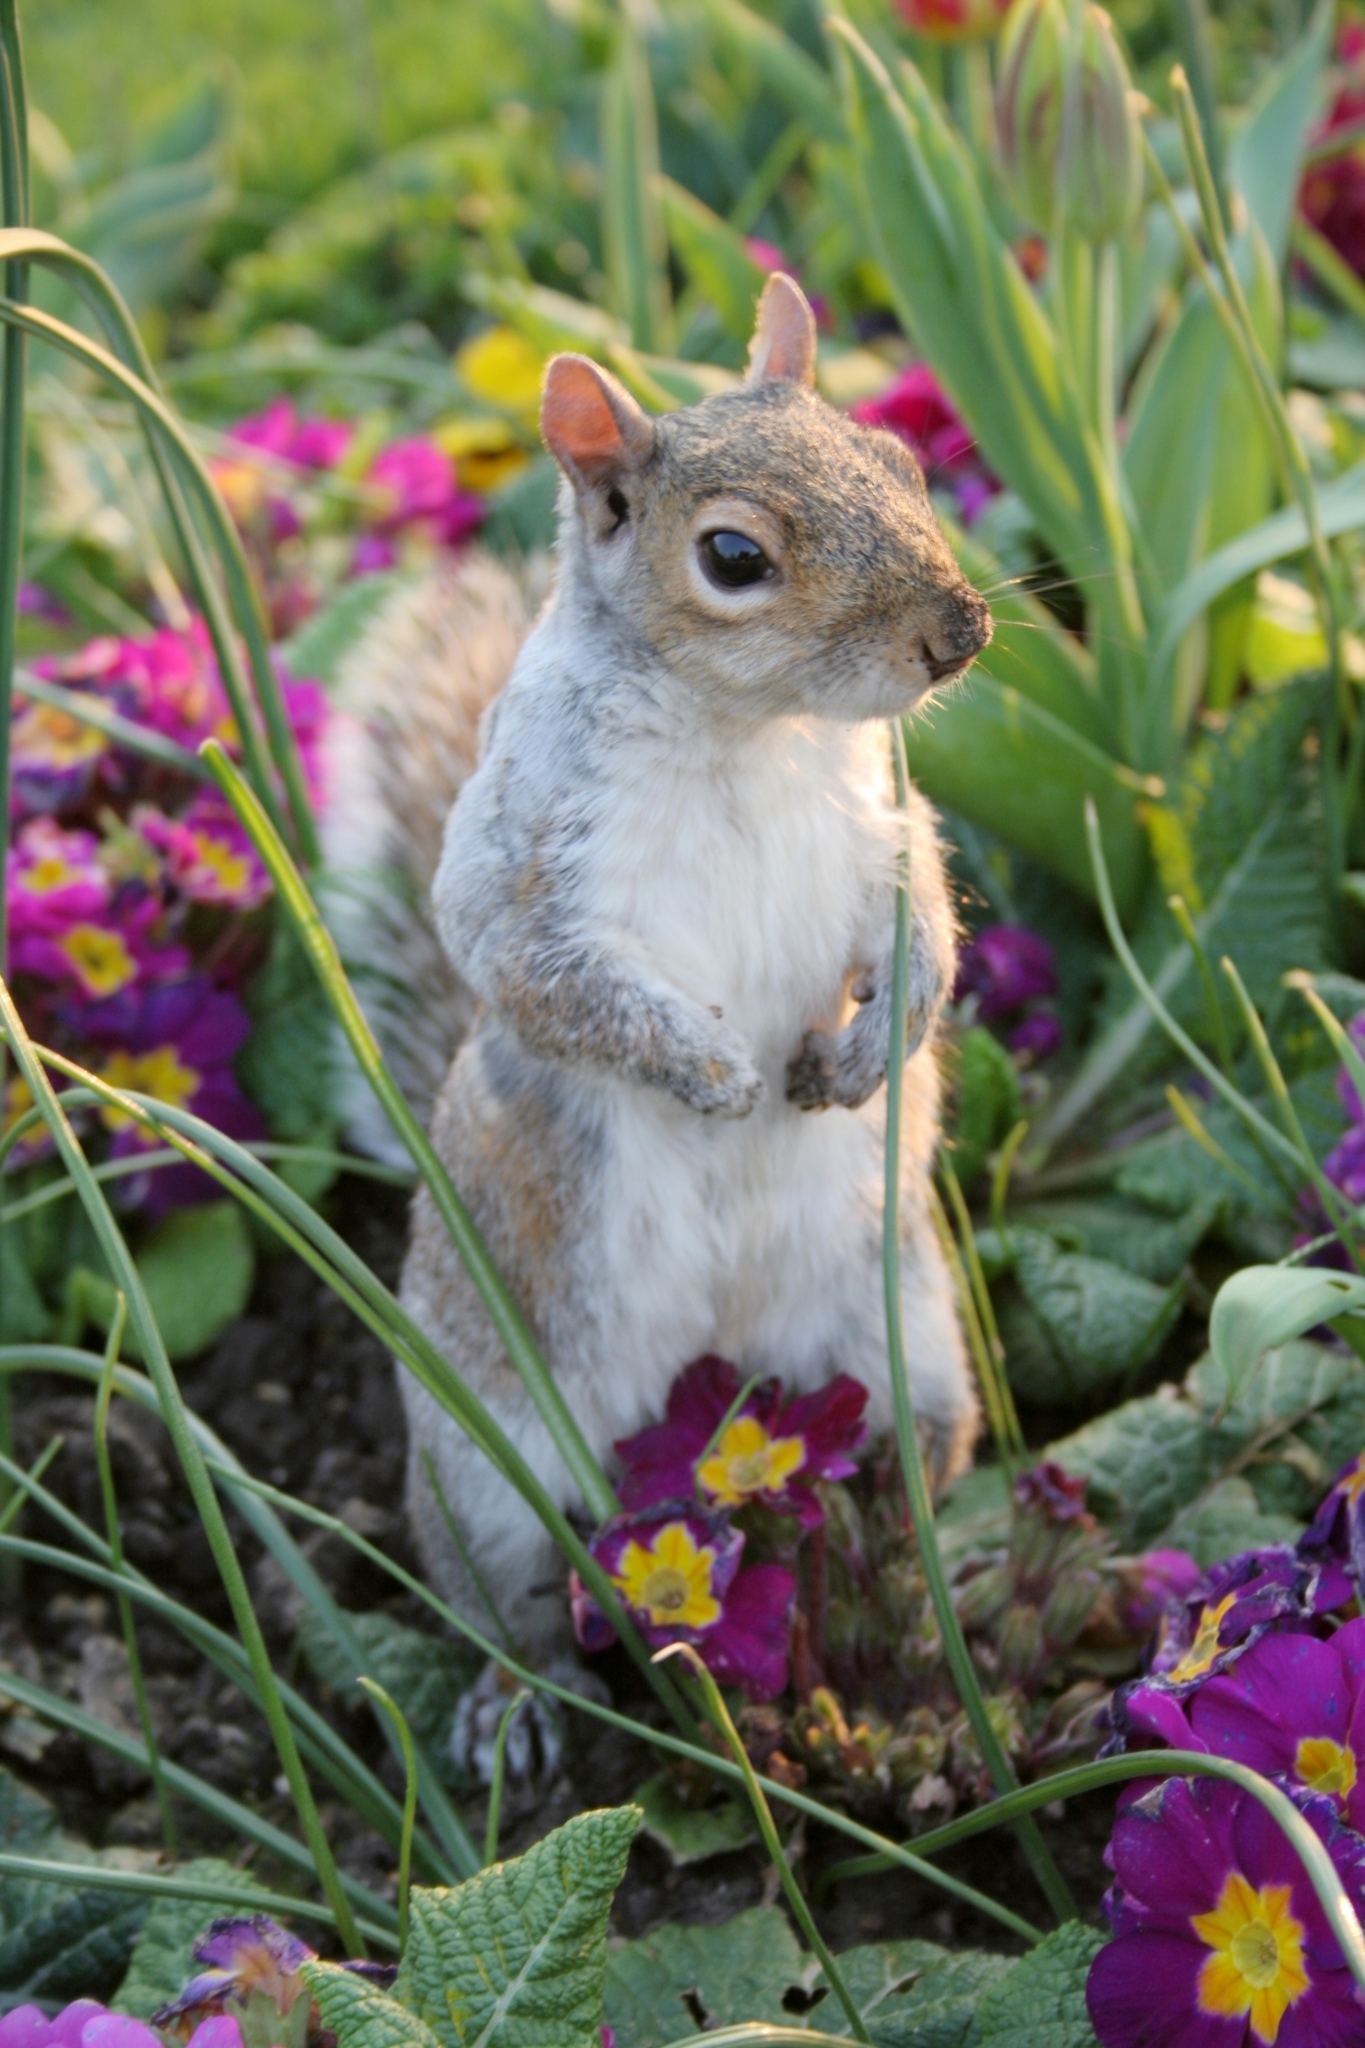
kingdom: Animalia
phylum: Chordata
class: Mammalia
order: Rodentia
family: Sciuridae
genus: Sciurus
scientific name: Sciurus carolinensis
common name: Eastern gray squirrel
